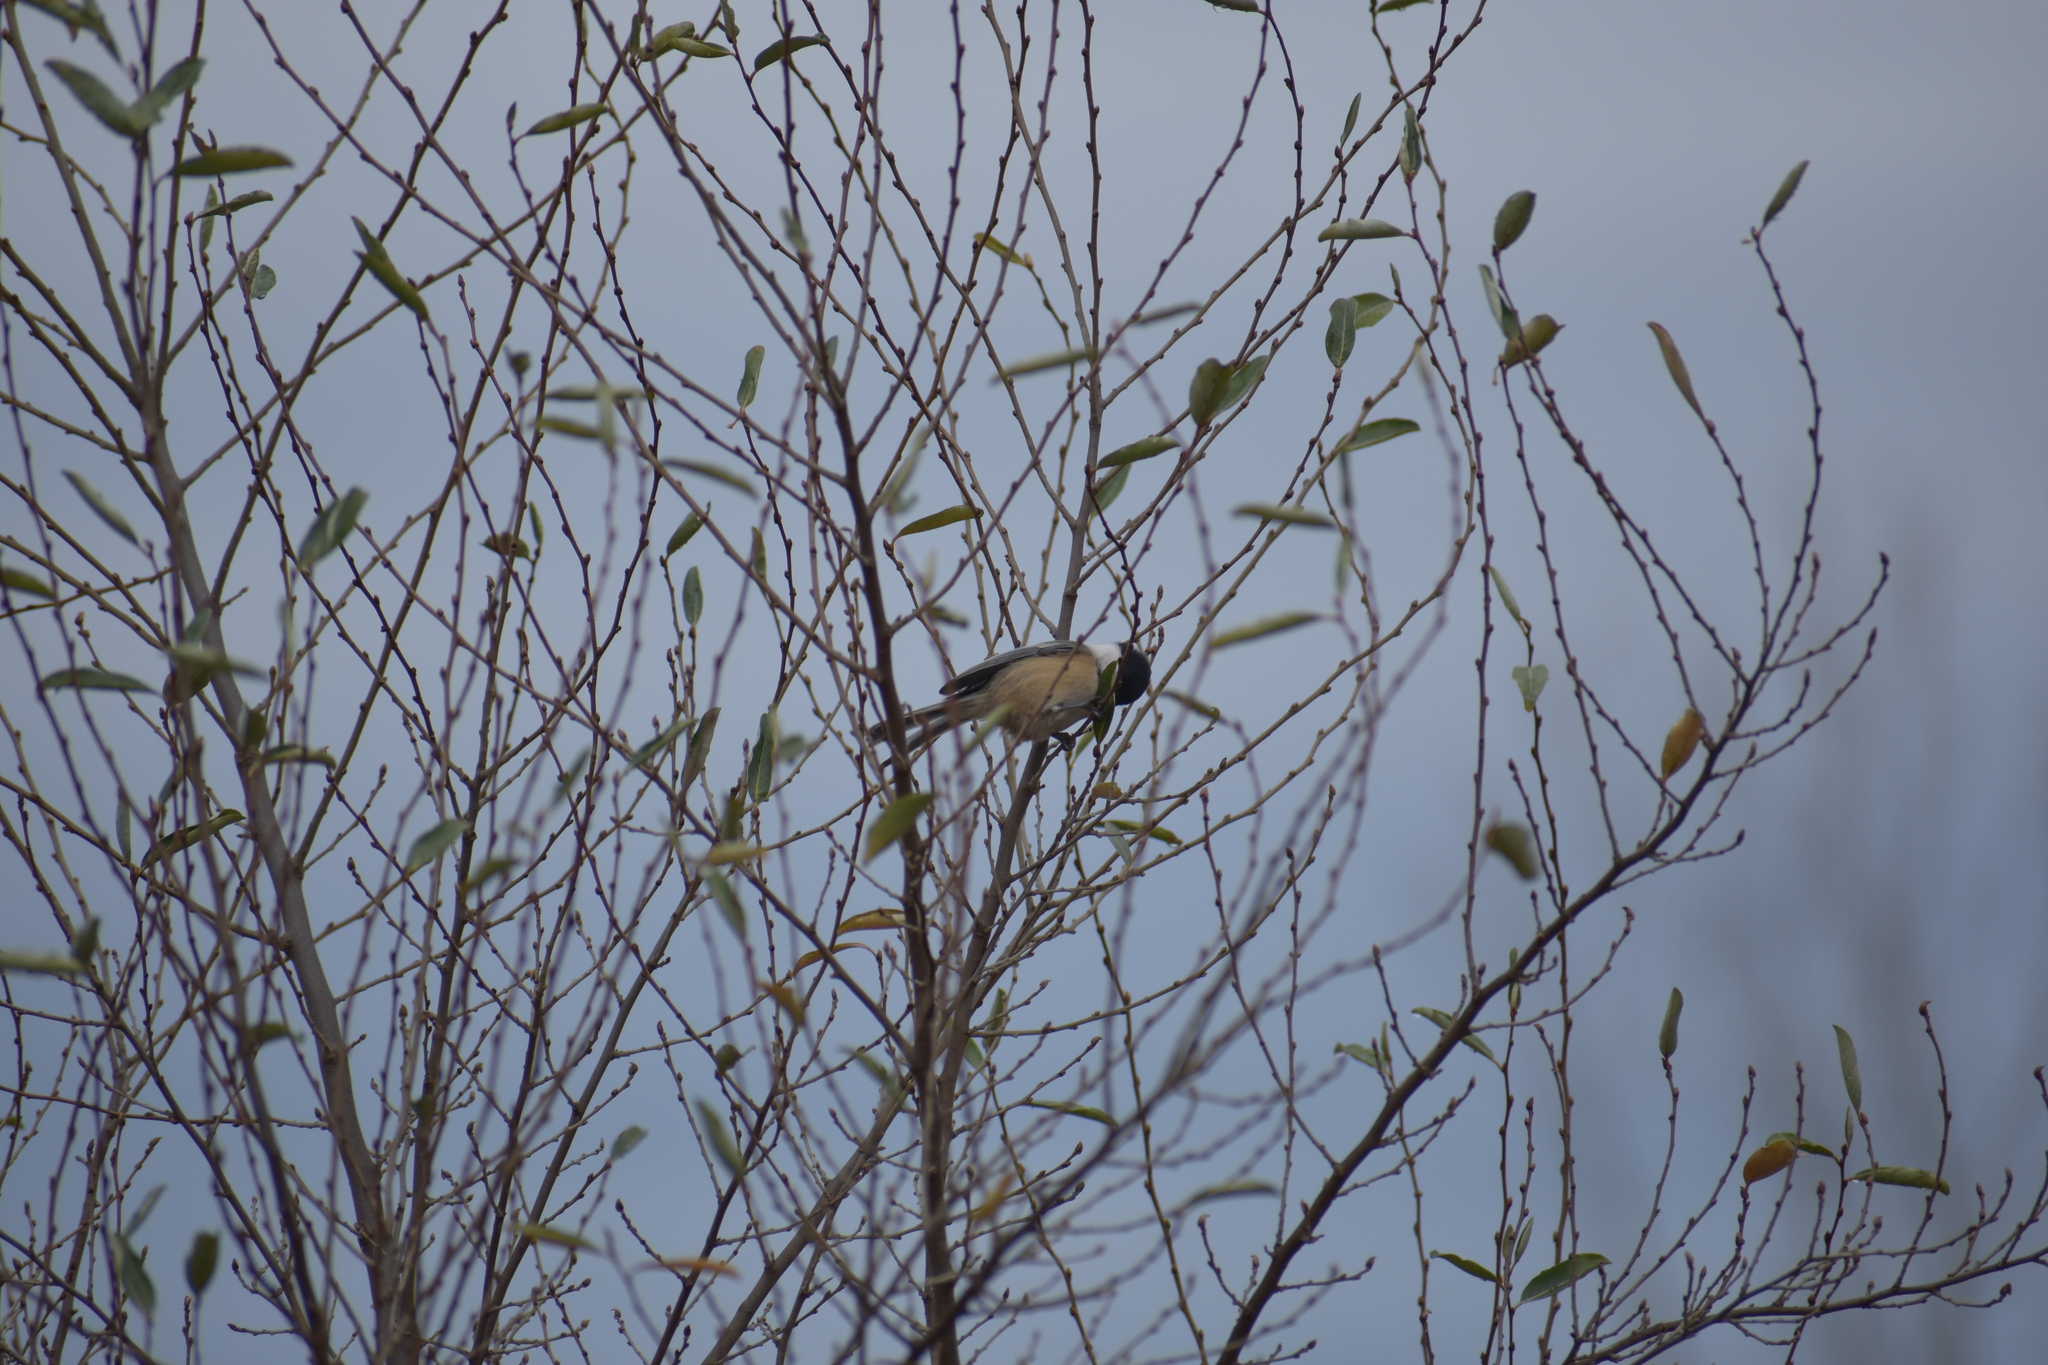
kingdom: Animalia
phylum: Chordata
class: Aves
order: Passeriformes
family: Paridae
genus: Poecile
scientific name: Poecile atricapillus
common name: Black-capped chickadee
